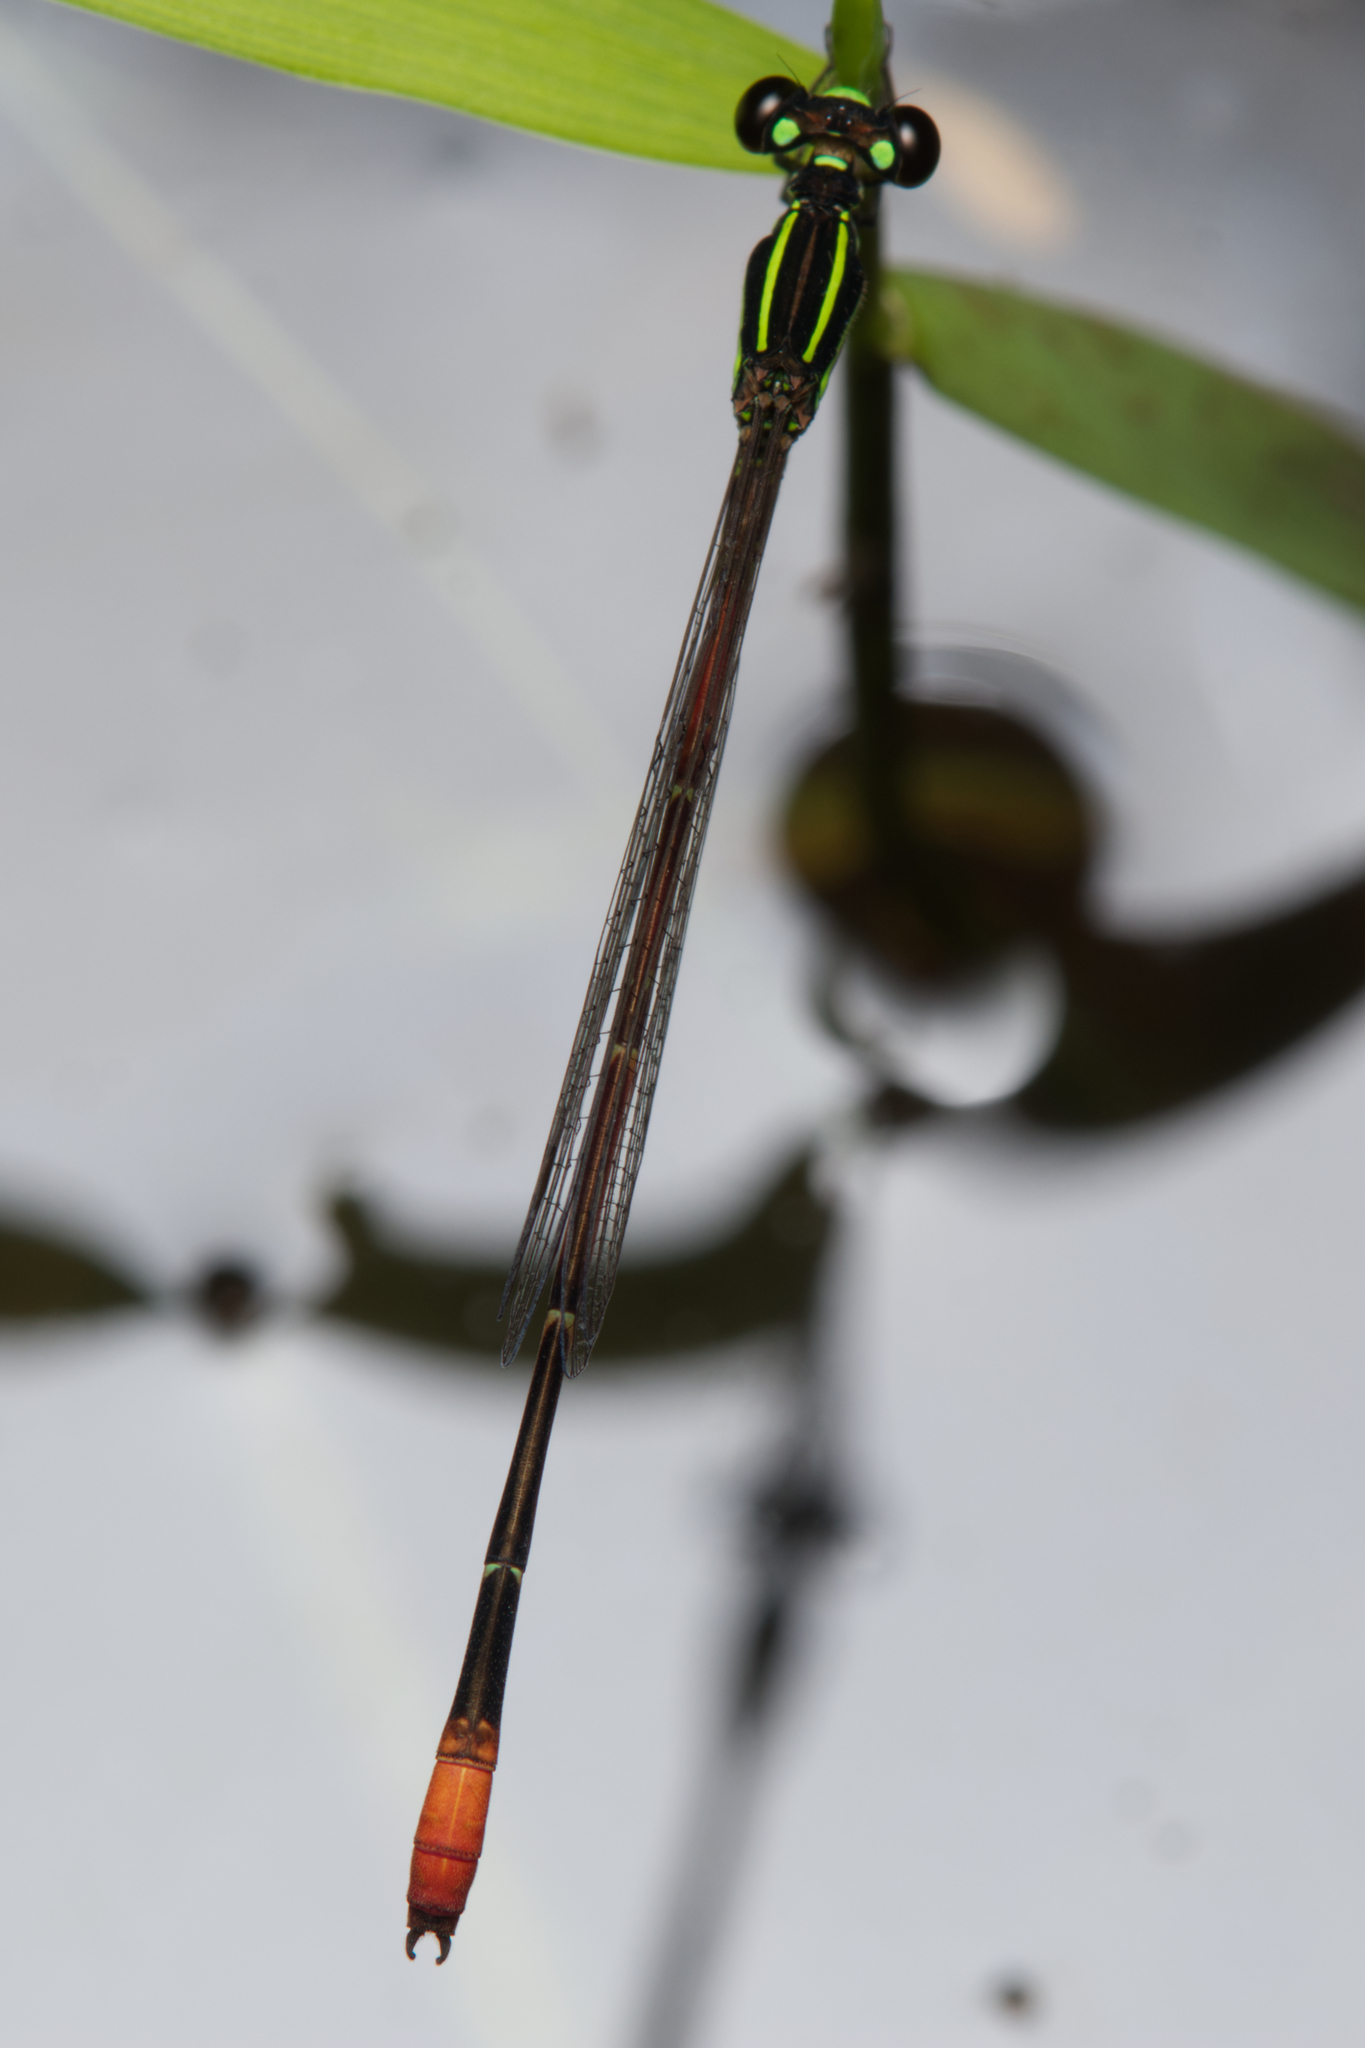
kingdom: Animalia
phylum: Arthropoda
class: Insecta
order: Odonata
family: Coenagrionidae
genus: Argiocnemis
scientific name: Argiocnemis rubescens
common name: Red-tipped shadefly
